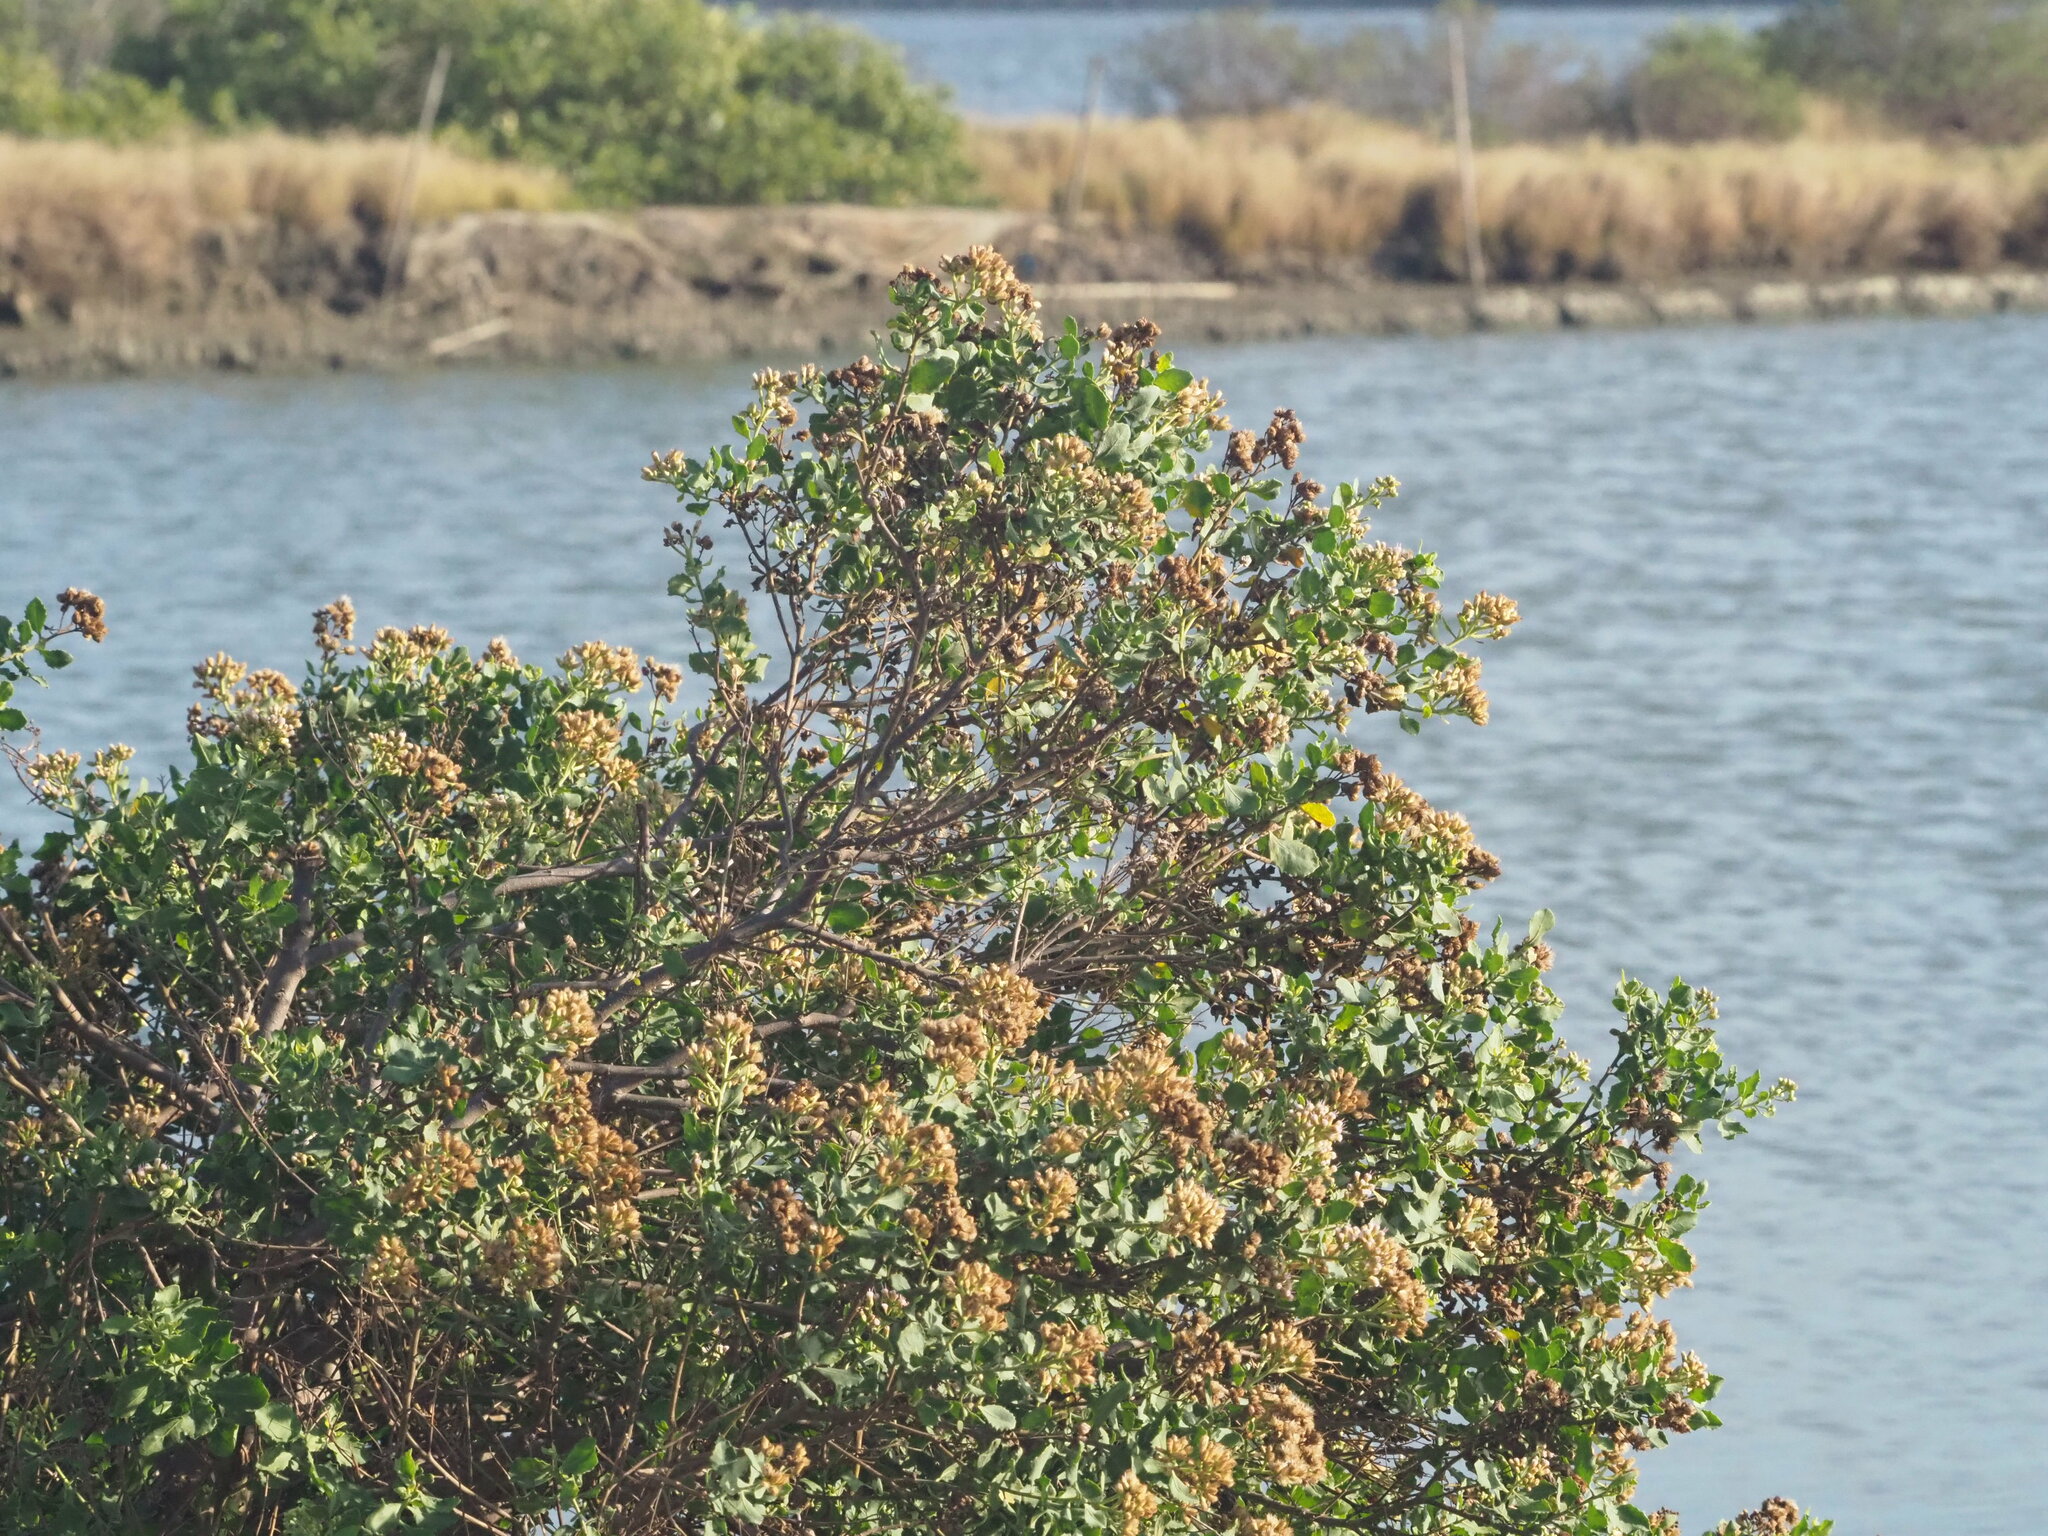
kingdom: Plantae
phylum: Tracheophyta
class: Magnoliopsida
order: Asterales
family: Asteraceae
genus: Pluchea
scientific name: Pluchea indica
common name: Indian fleabane
